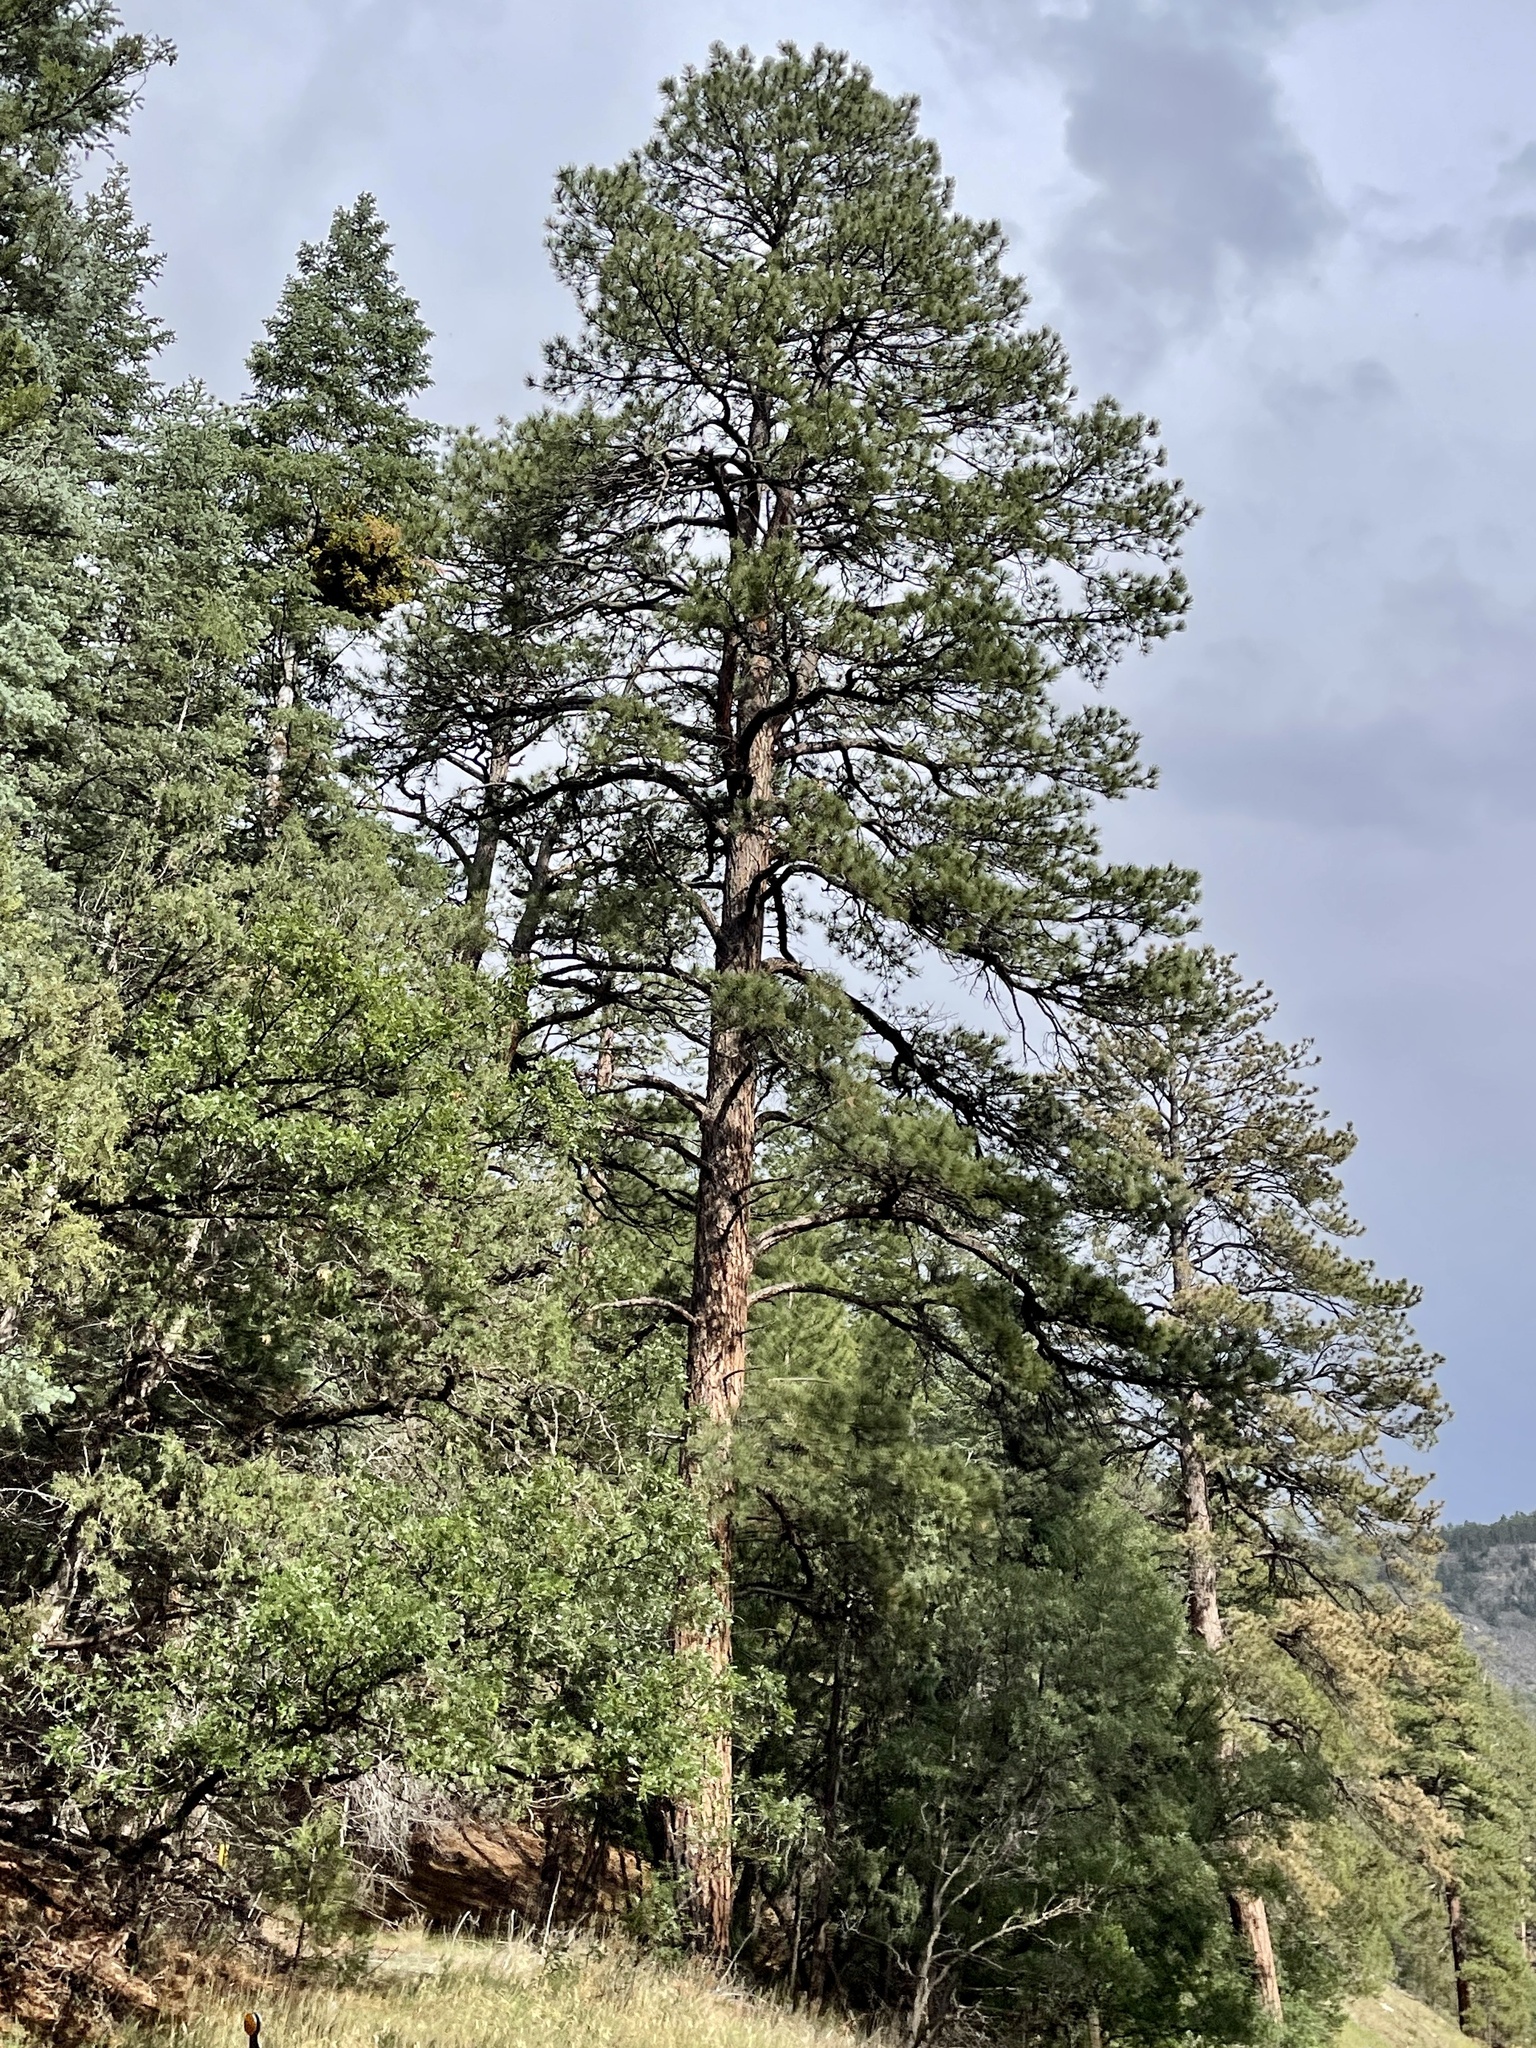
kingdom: Plantae
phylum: Tracheophyta
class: Pinopsida
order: Pinales
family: Pinaceae
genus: Pinus
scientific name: Pinus ponderosa
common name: Western yellow-pine
